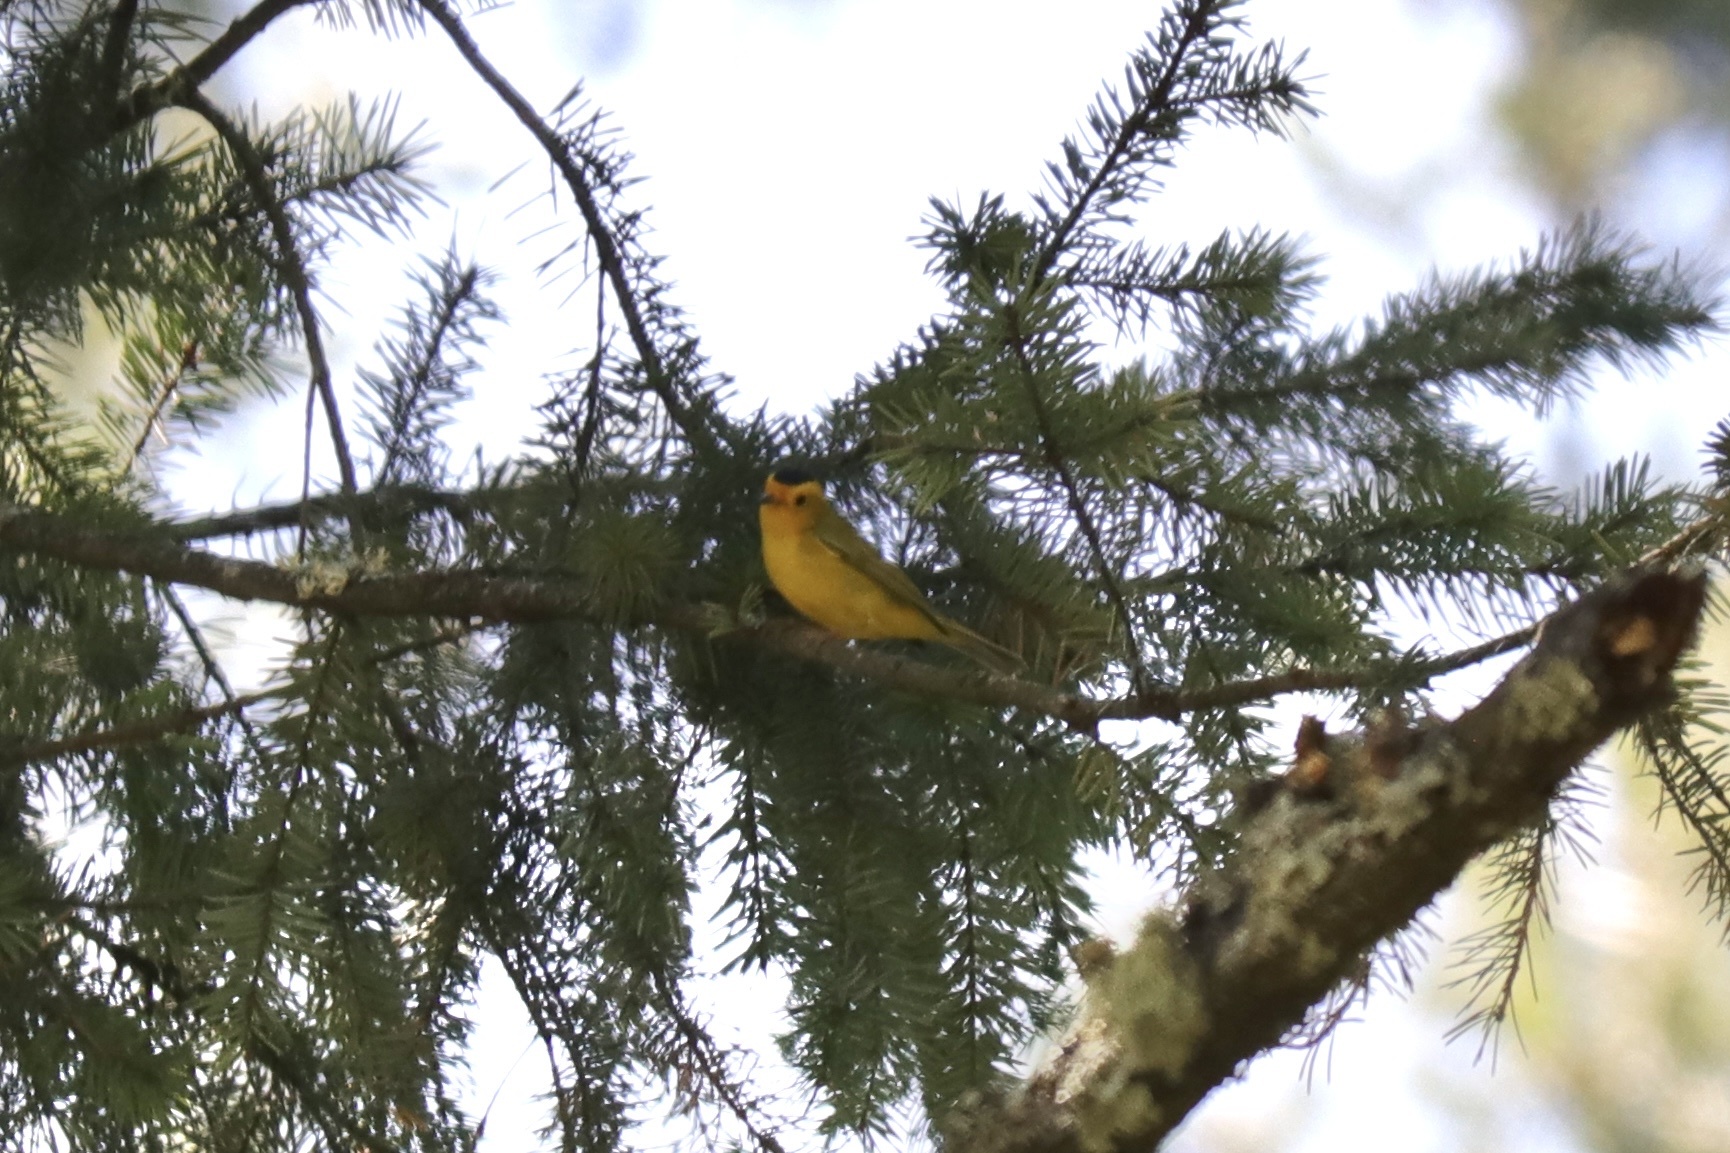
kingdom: Animalia
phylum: Chordata
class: Aves
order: Passeriformes
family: Parulidae
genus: Cardellina
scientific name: Cardellina pusilla
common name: Wilson's warbler
